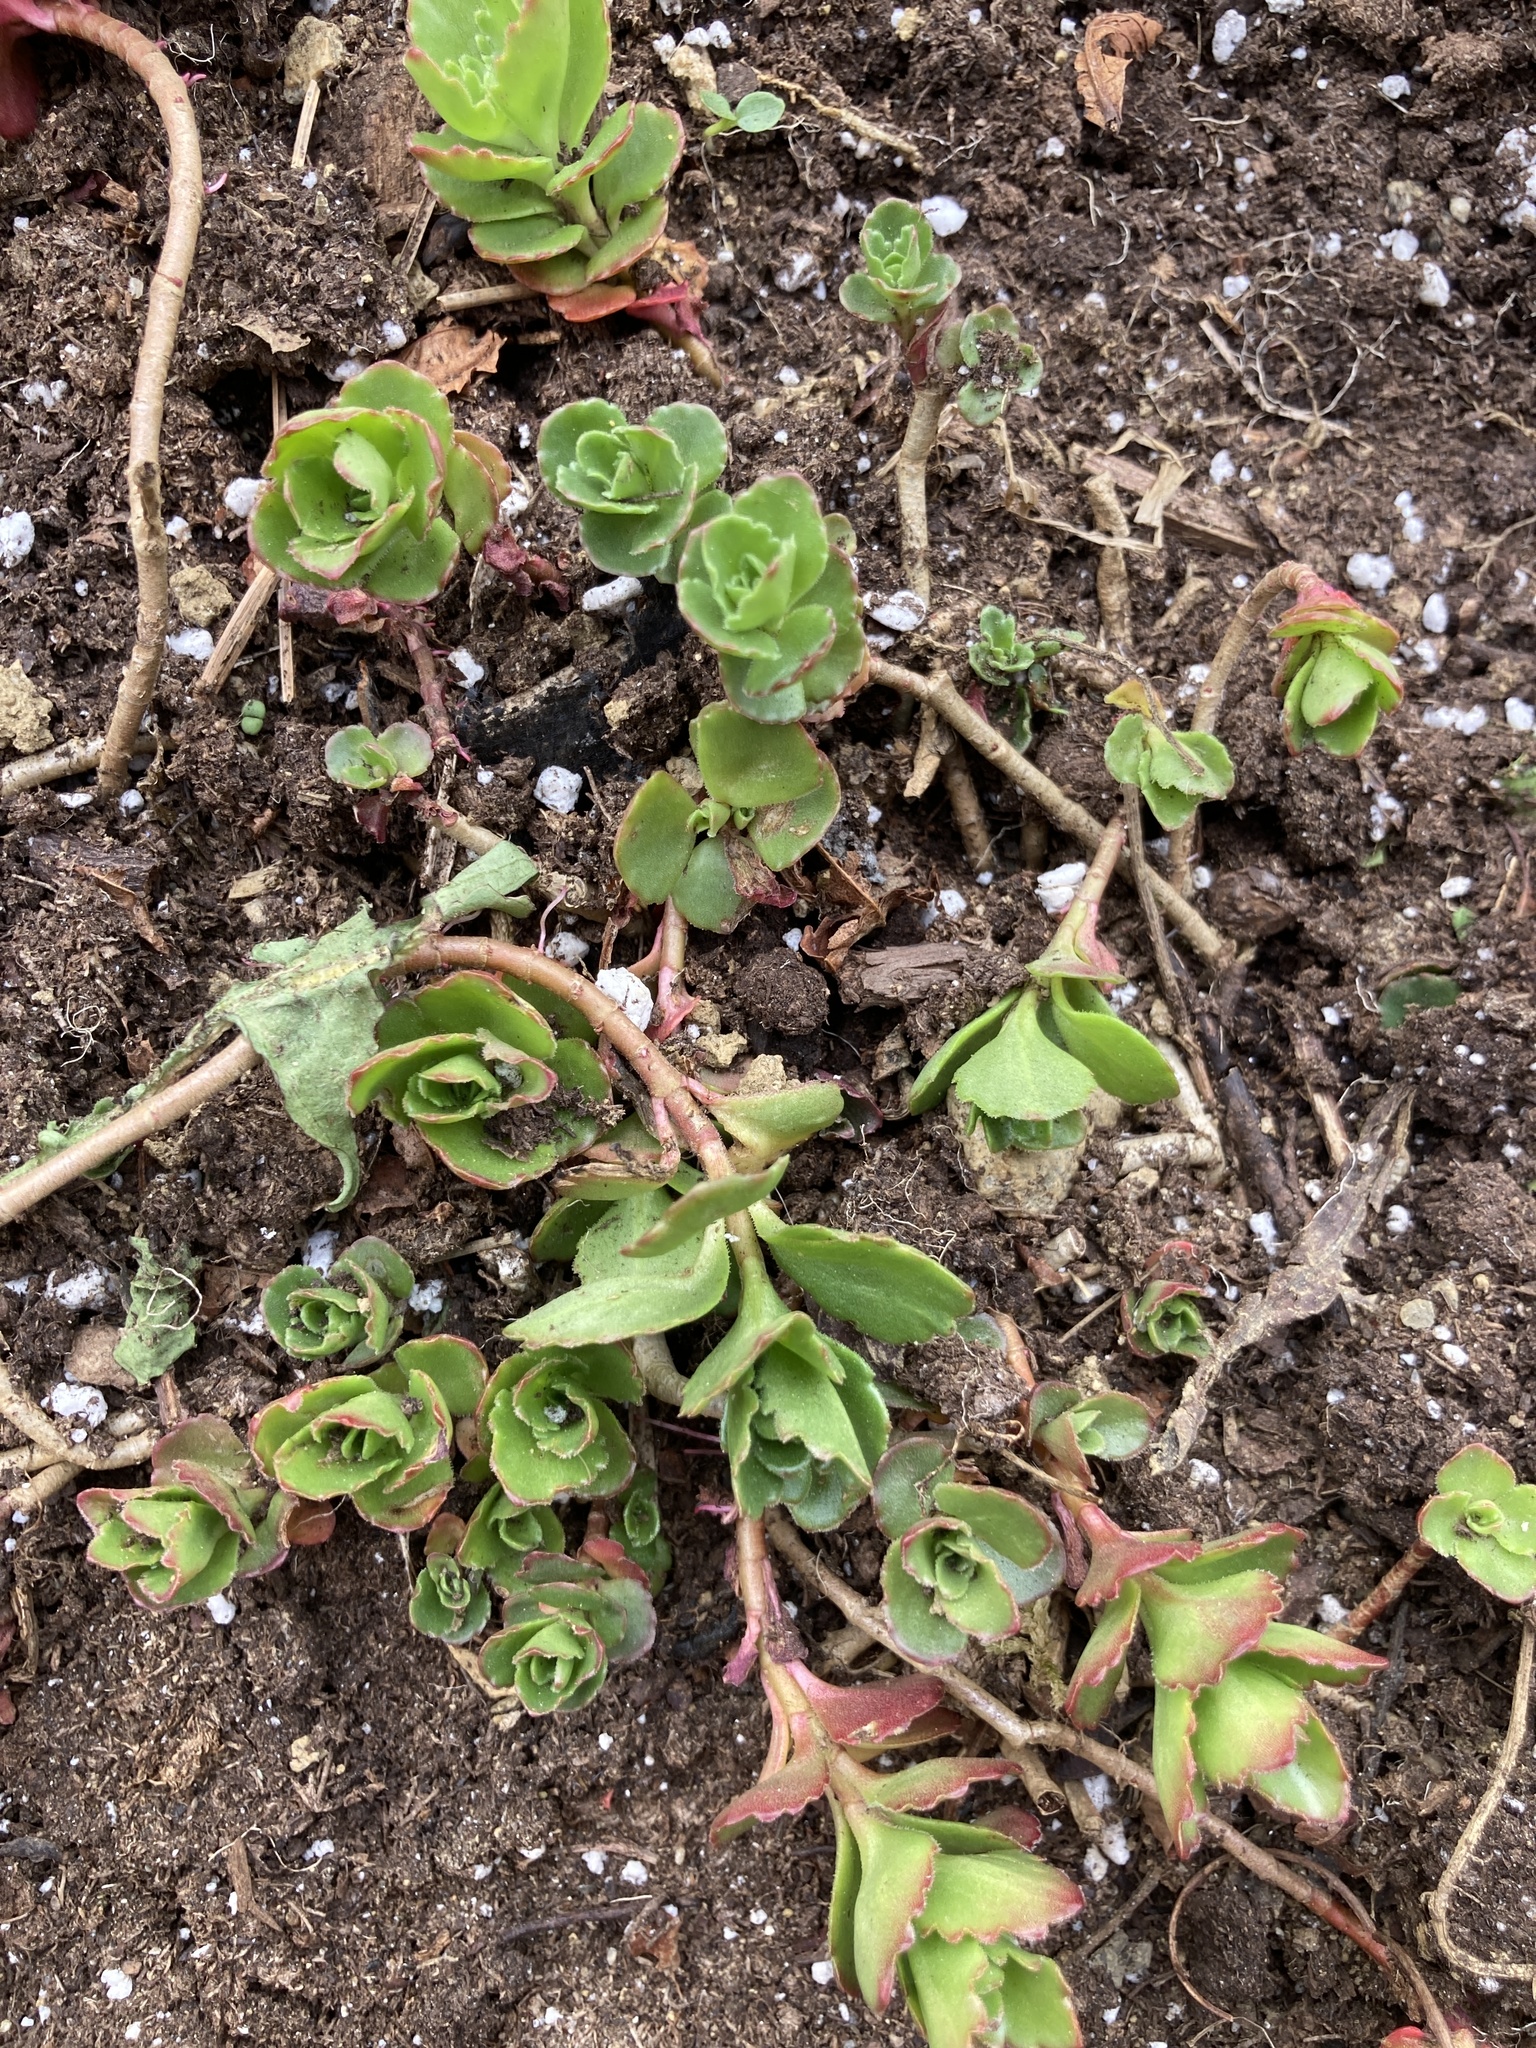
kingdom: Plantae
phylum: Tracheophyta
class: Magnoliopsida
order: Saxifragales
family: Crassulaceae
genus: Phedimus
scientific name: Phedimus spurius
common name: Caucasian stonecrop
